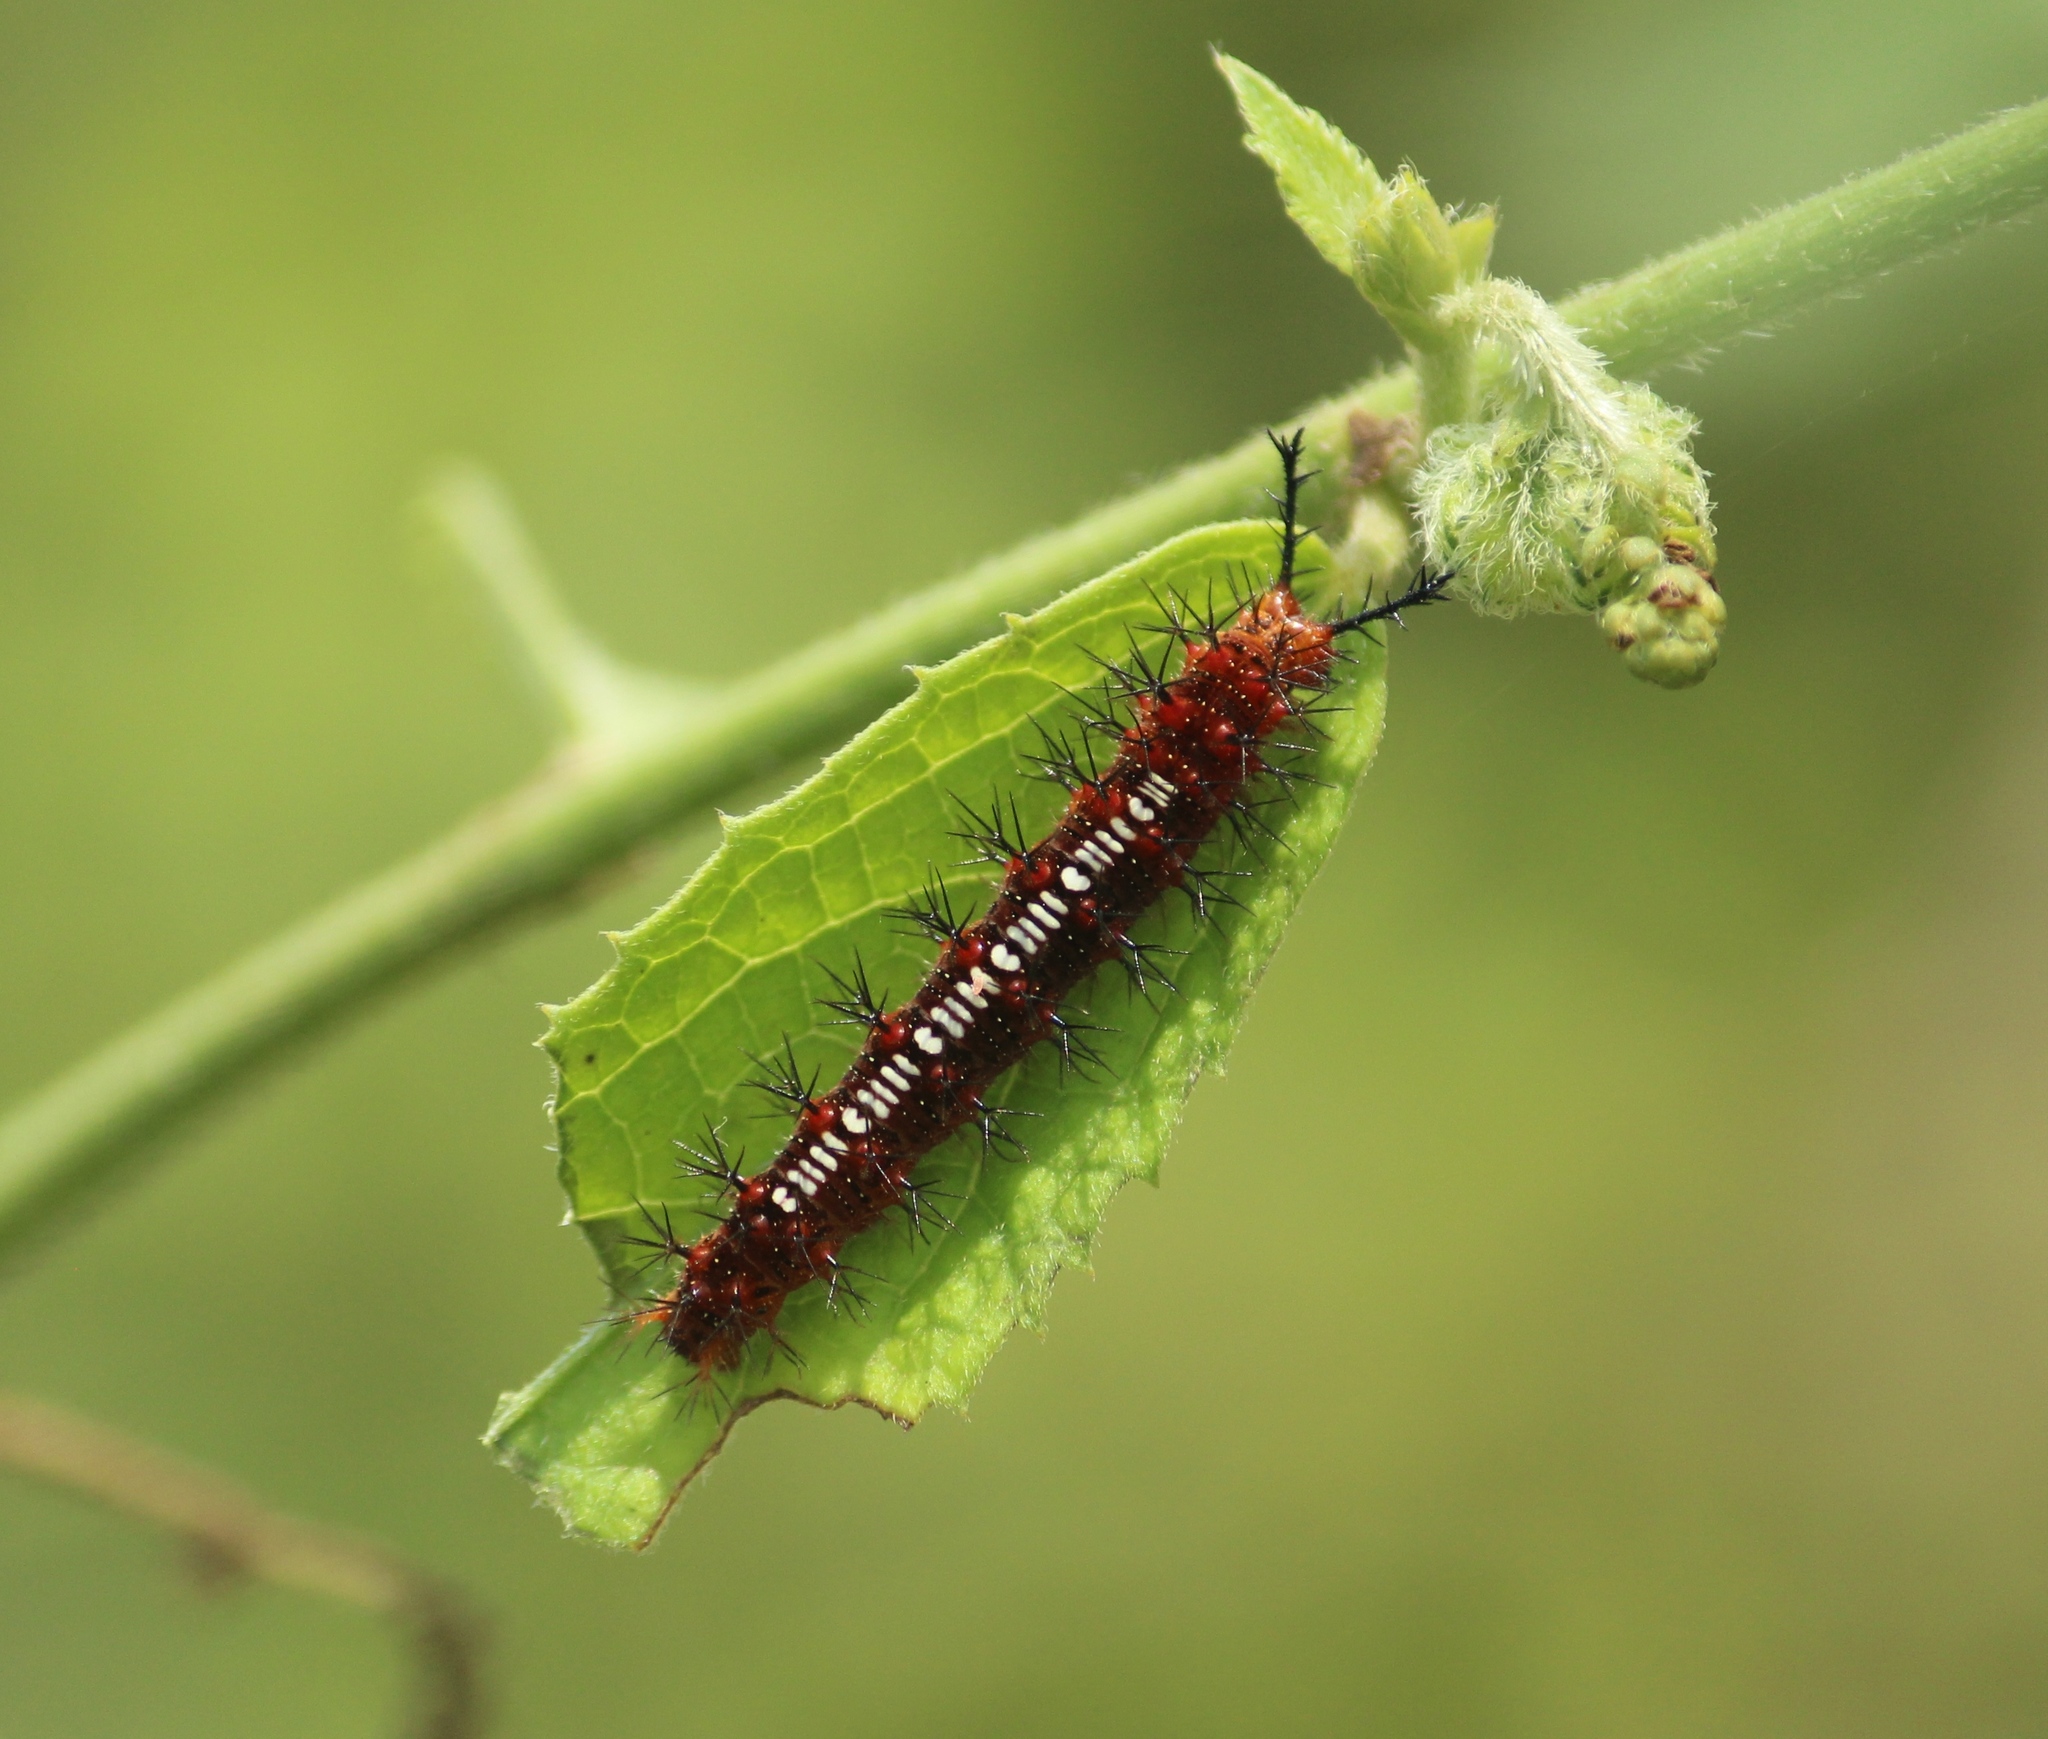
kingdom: Animalia
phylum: Arthropoda
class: Insecta
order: Lepidoptera
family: Nymphalidae
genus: Ariadne
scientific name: Ariadne ariadne
